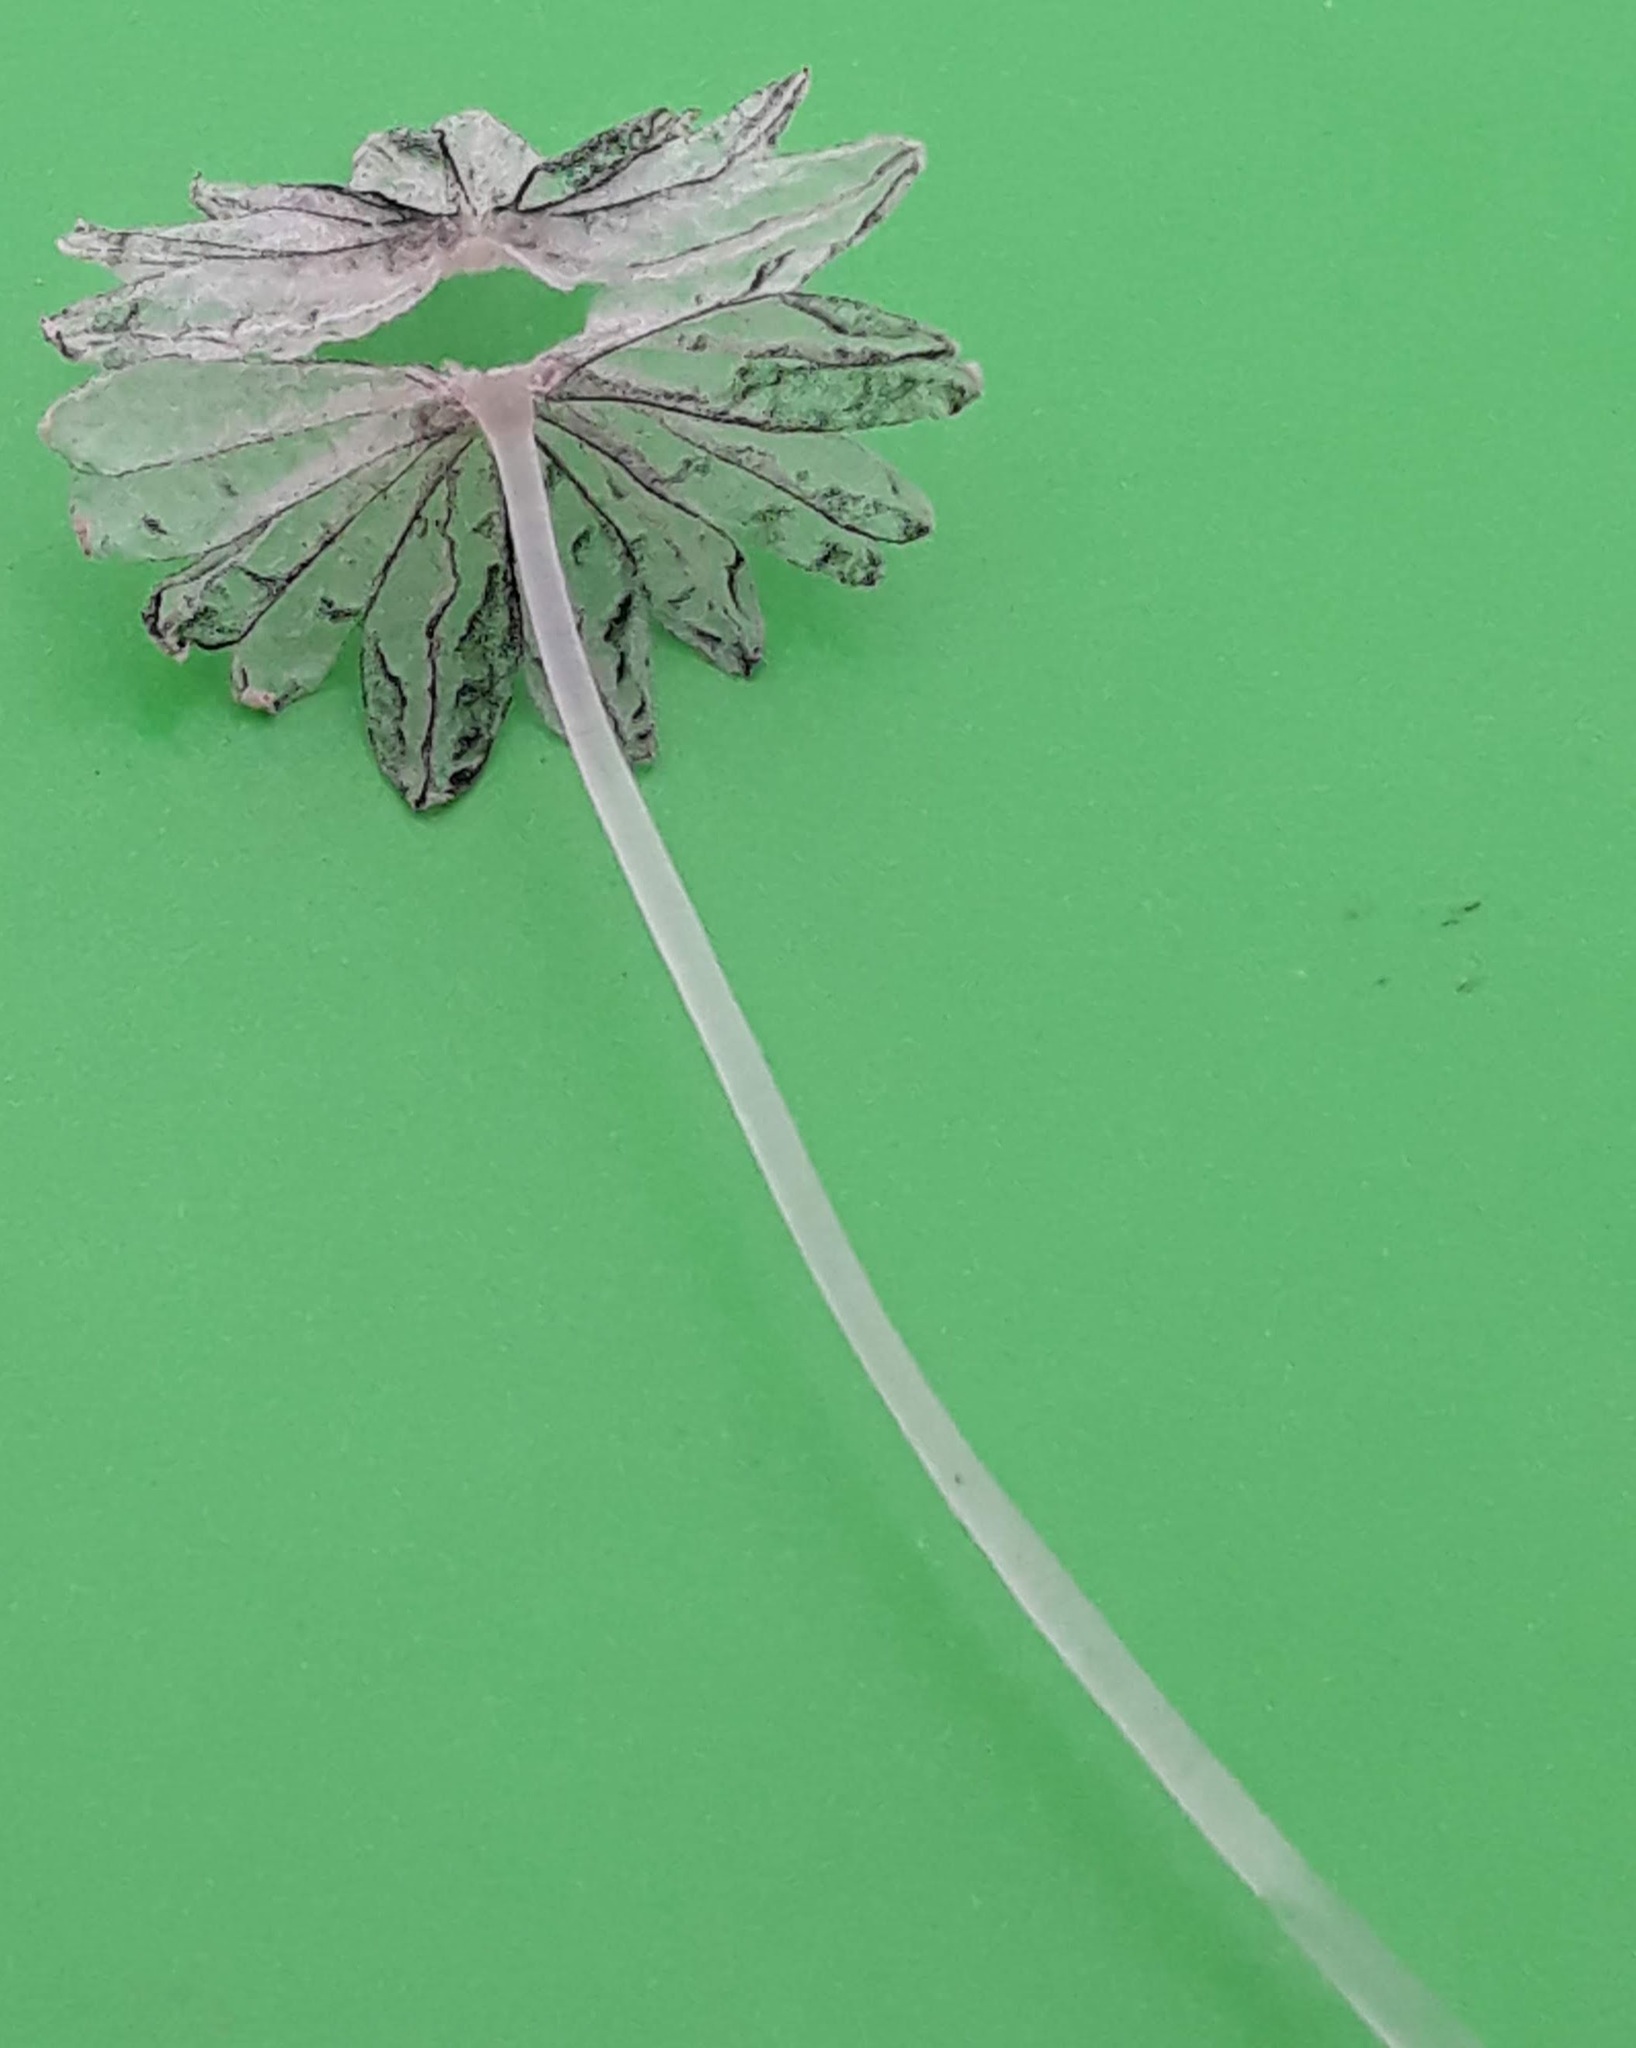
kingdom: Fungi
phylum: Basidiomycota
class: Agaricomycetes
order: Agaricales
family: Psathyrellaceae
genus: Coprinopsis
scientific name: Coprinopsis friesii
